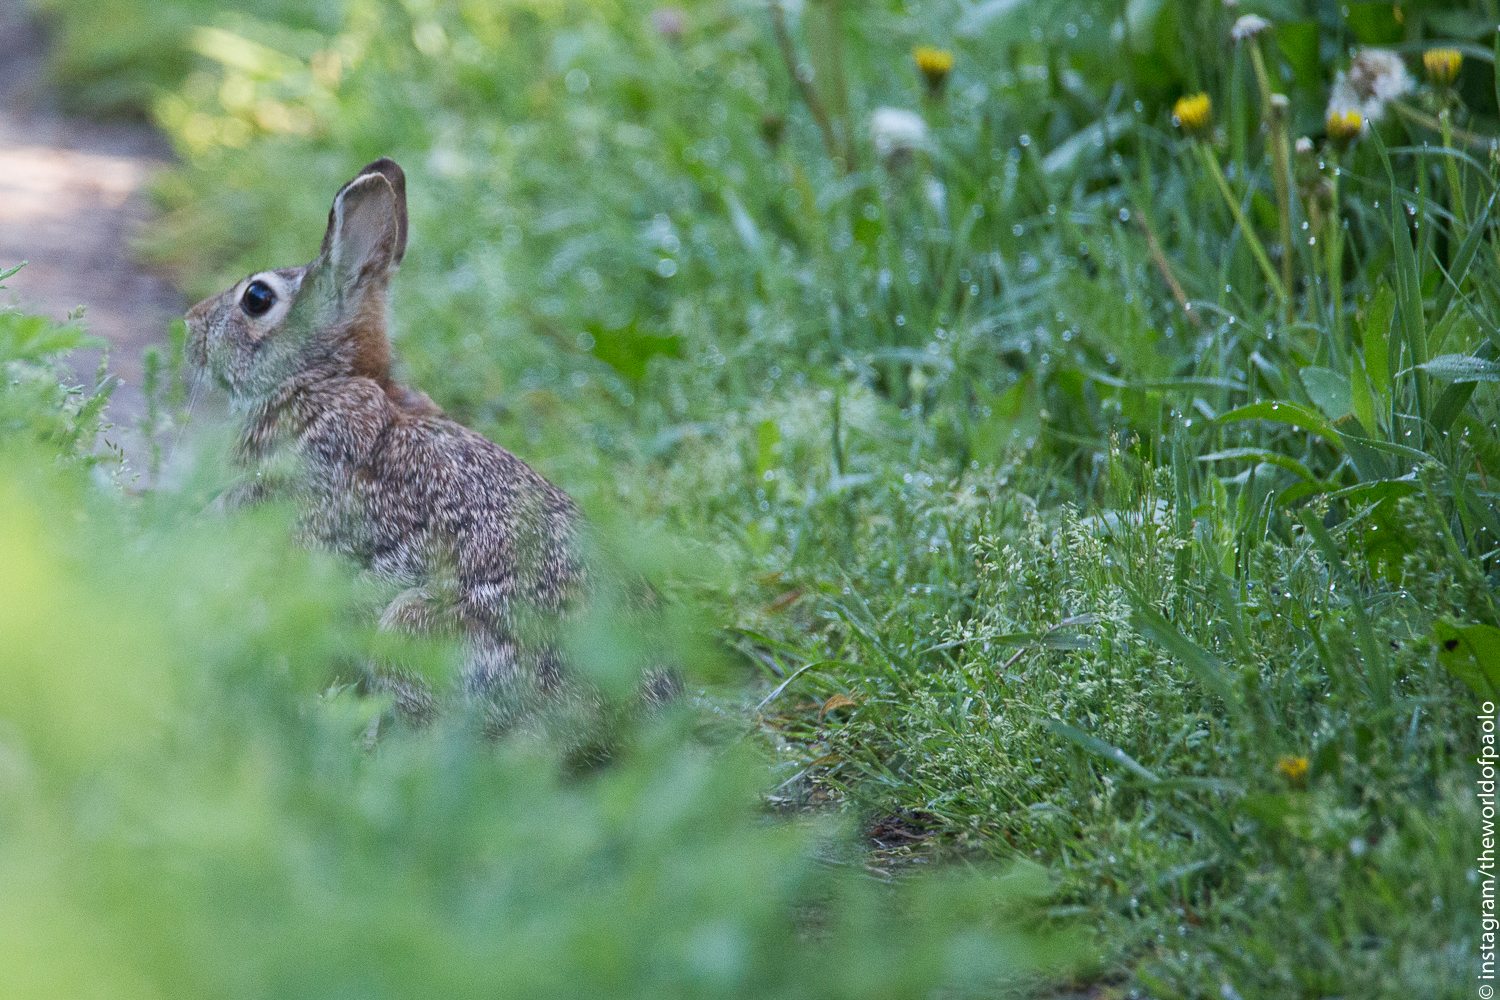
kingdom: Animalia
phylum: Chordata
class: Mammalia
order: Lagomorpha
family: Leporidae
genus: Sylvilagus
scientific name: Sylvilagus floridanus
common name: Eastern cottontail
